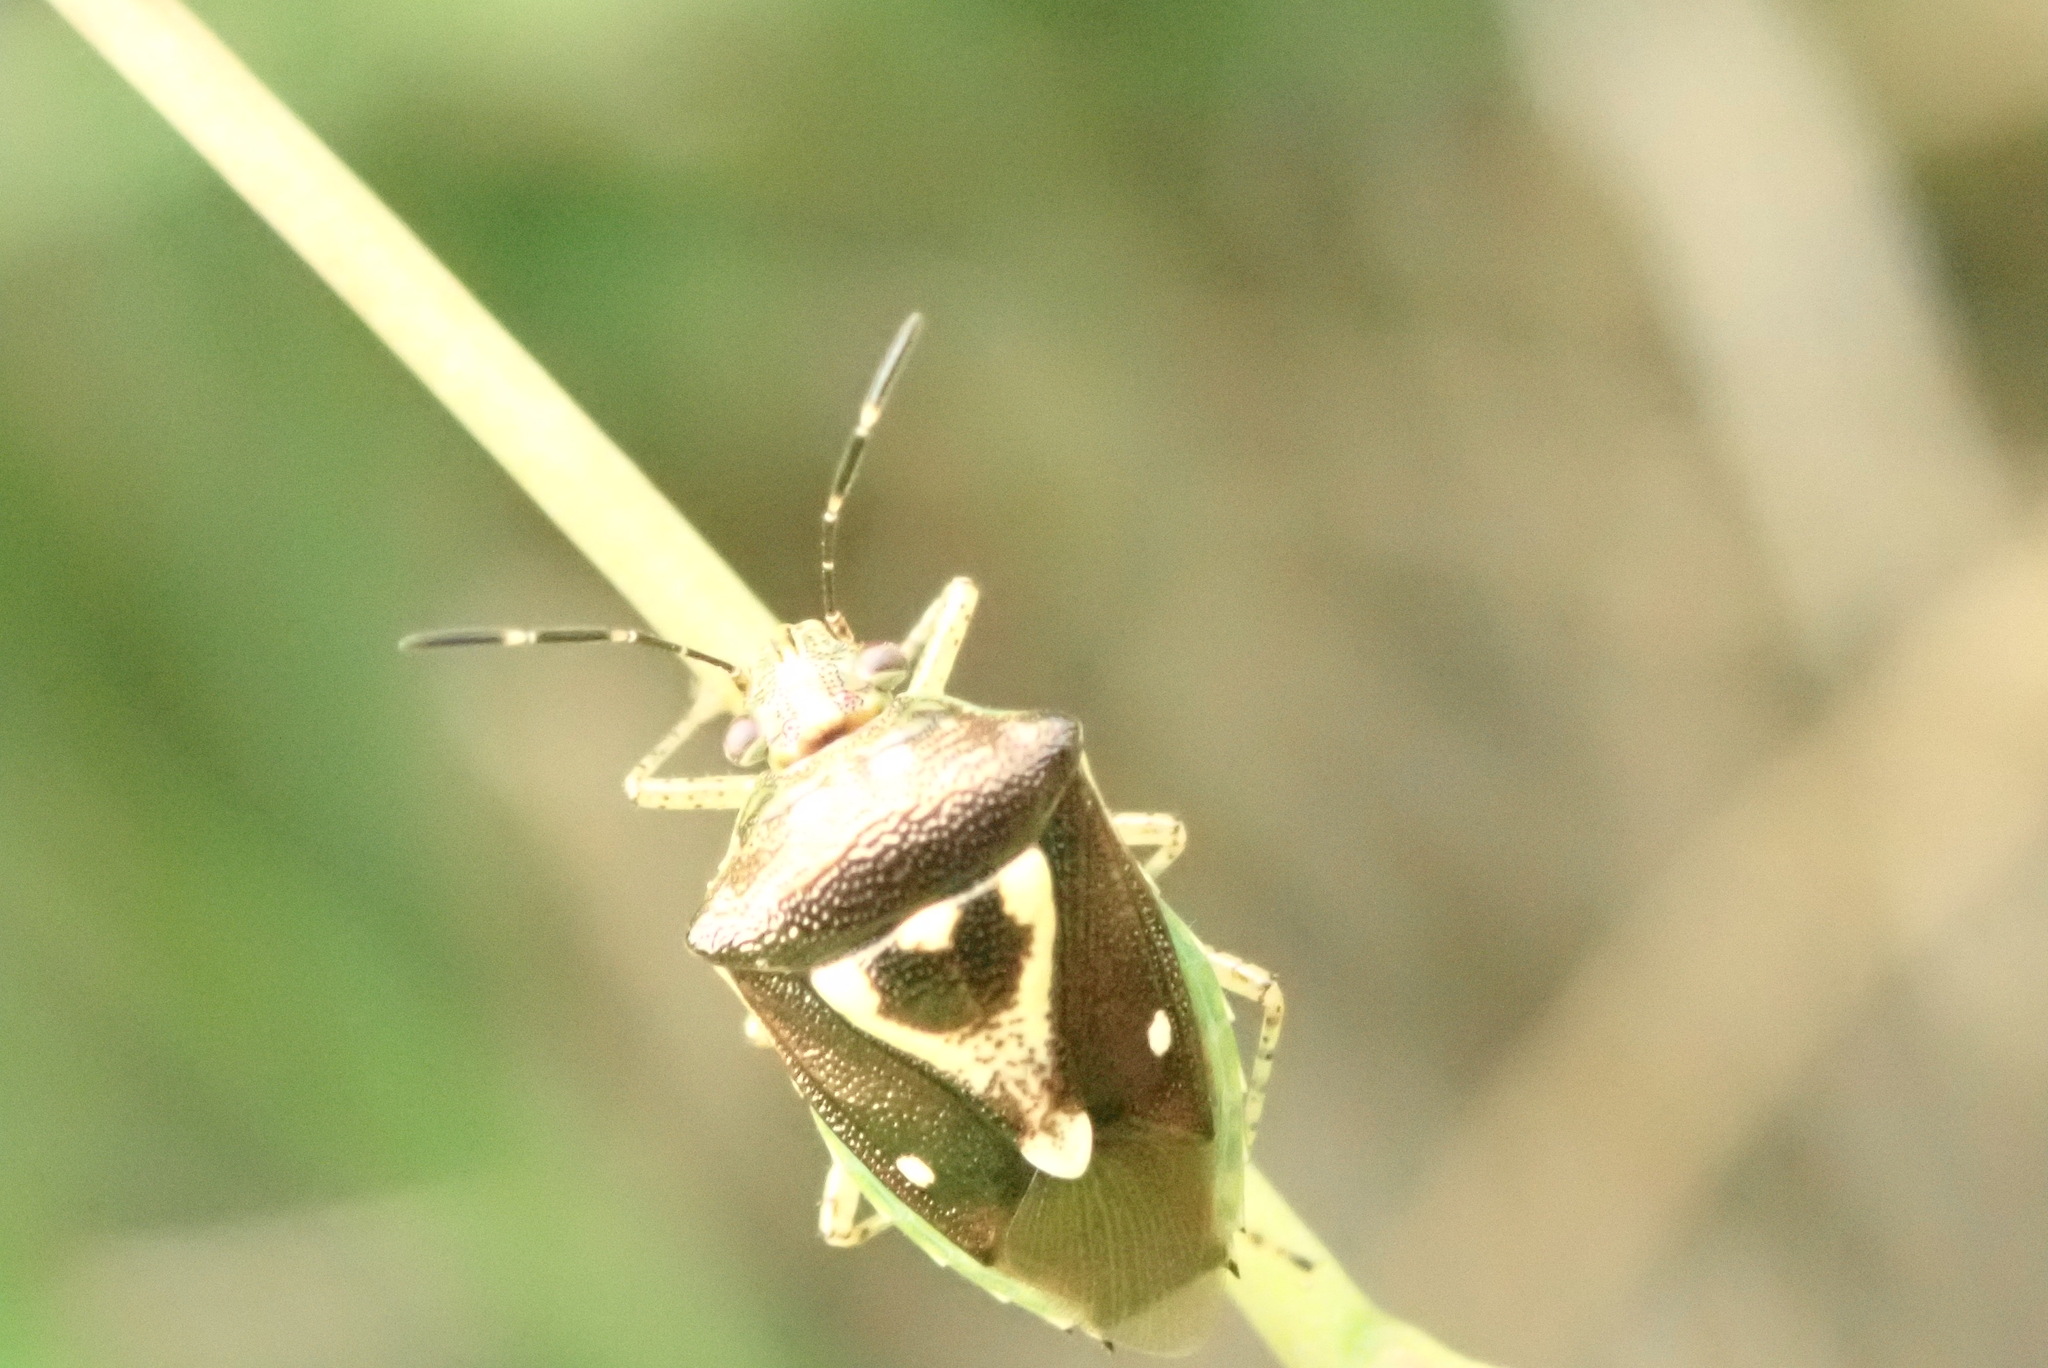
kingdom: Animalia
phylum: Arthropoda
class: Insecta
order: Hemiptera
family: Pentatomidae
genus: Mormidea
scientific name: Mormidea ypsilon
